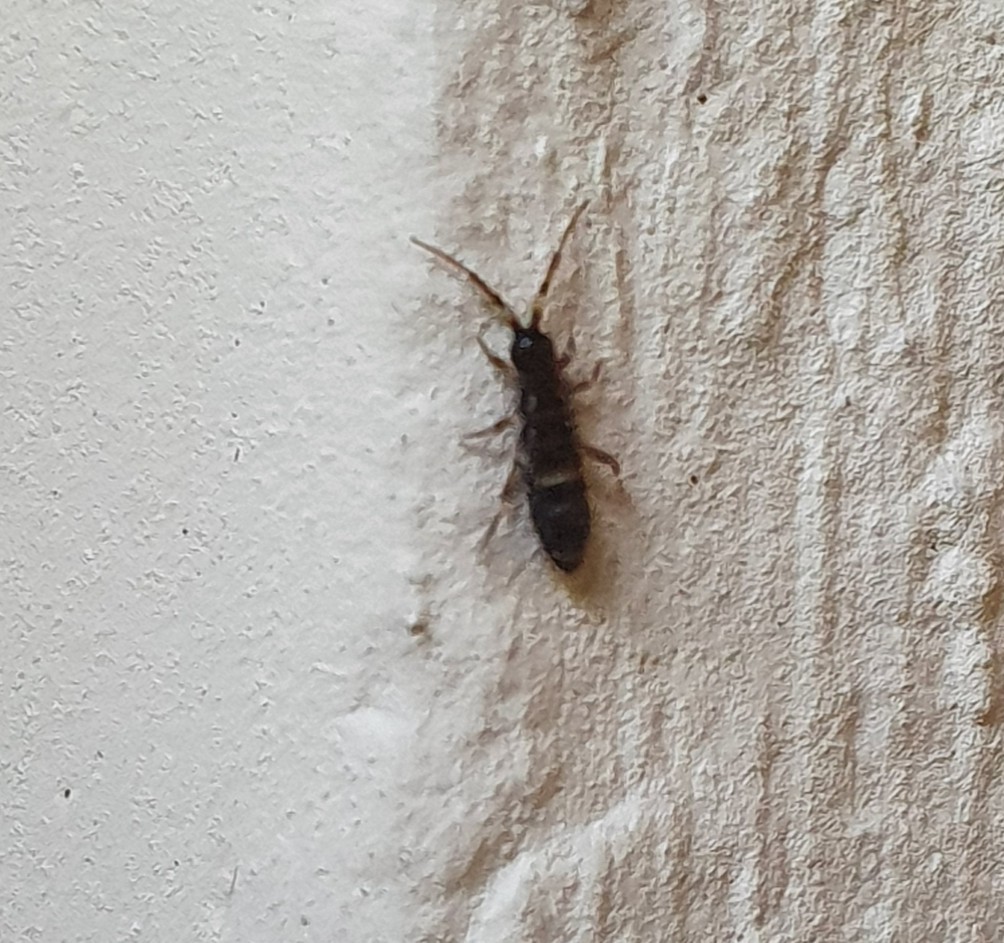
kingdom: Animalia
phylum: Arthropoda
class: Collembola
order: Entomobryomorpha
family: Orchesellidae
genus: Orchesella
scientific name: Orchesella cincta
